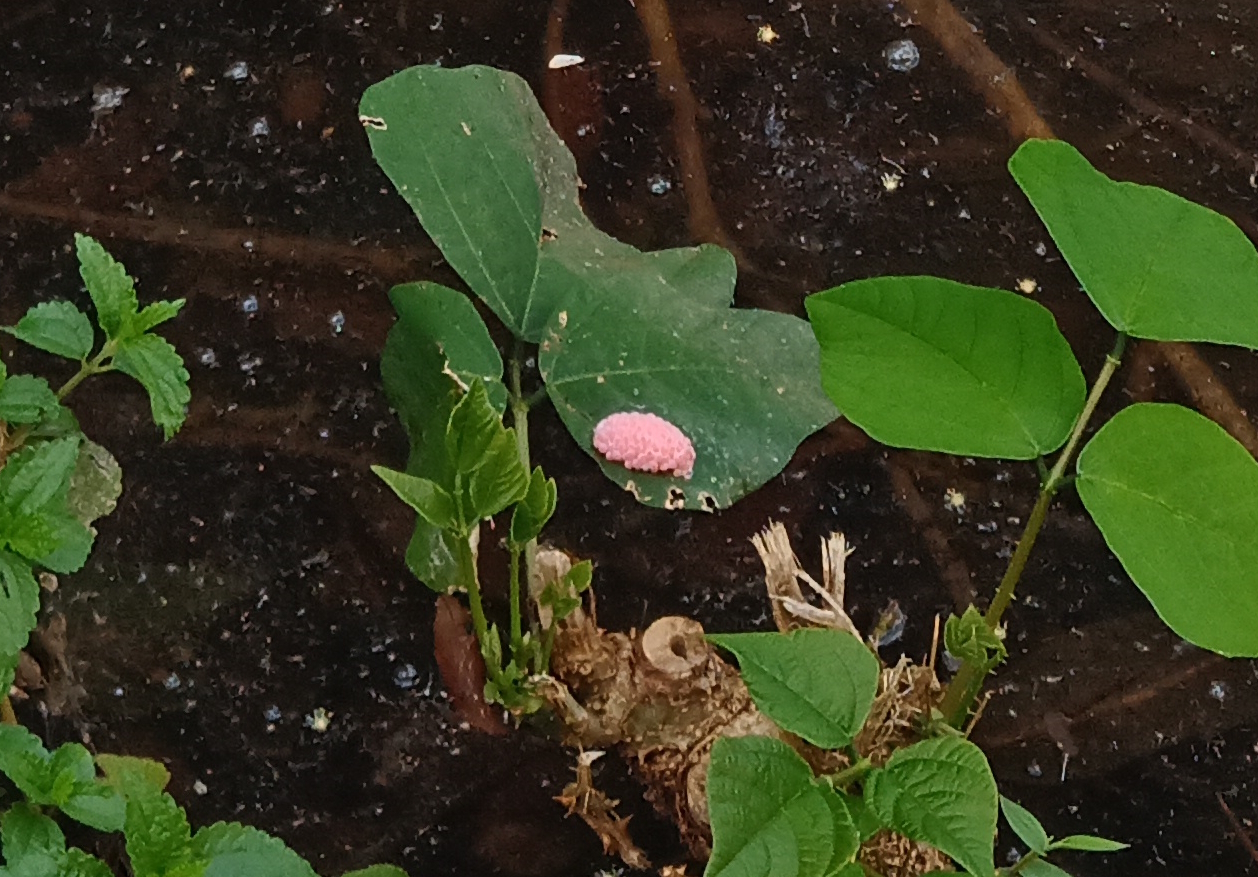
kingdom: Animalia
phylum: Mollusca
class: Gastropoda
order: Architaenioglossa
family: Ampullariidae
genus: Pomacea
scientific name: Pomacea
